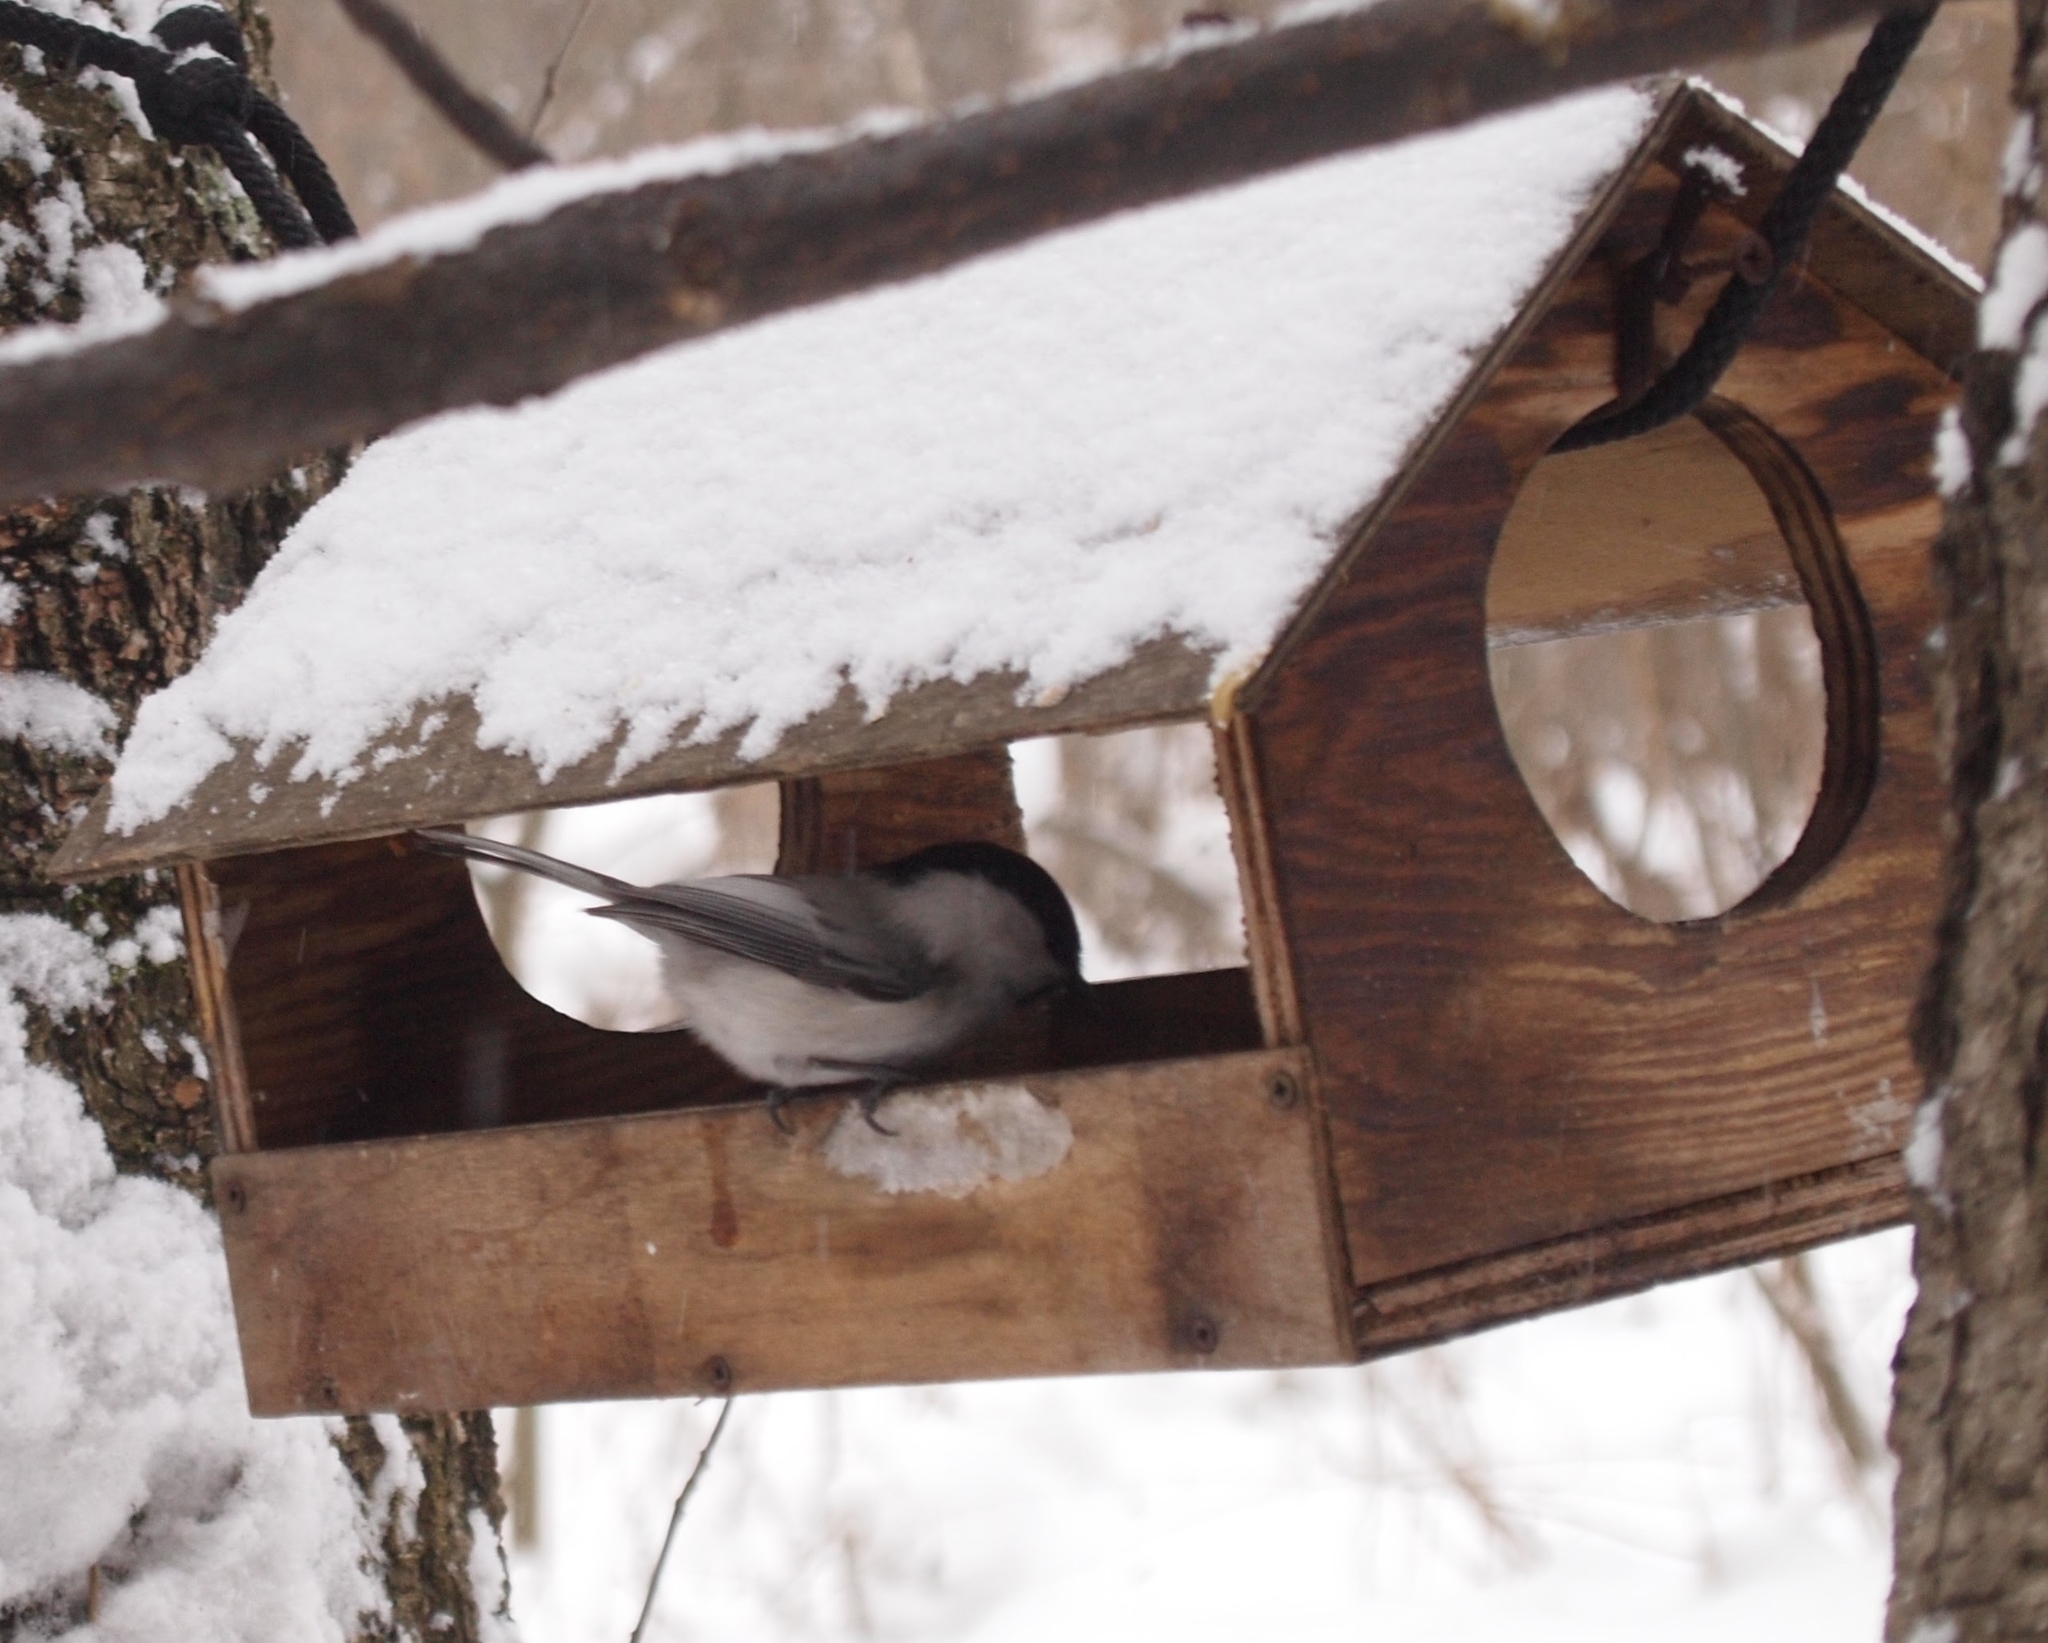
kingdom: Animalia
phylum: Chordata
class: Aves
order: Passeriformes
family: Paridae
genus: Poecile
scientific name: Poecile montanus
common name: Willow tit
